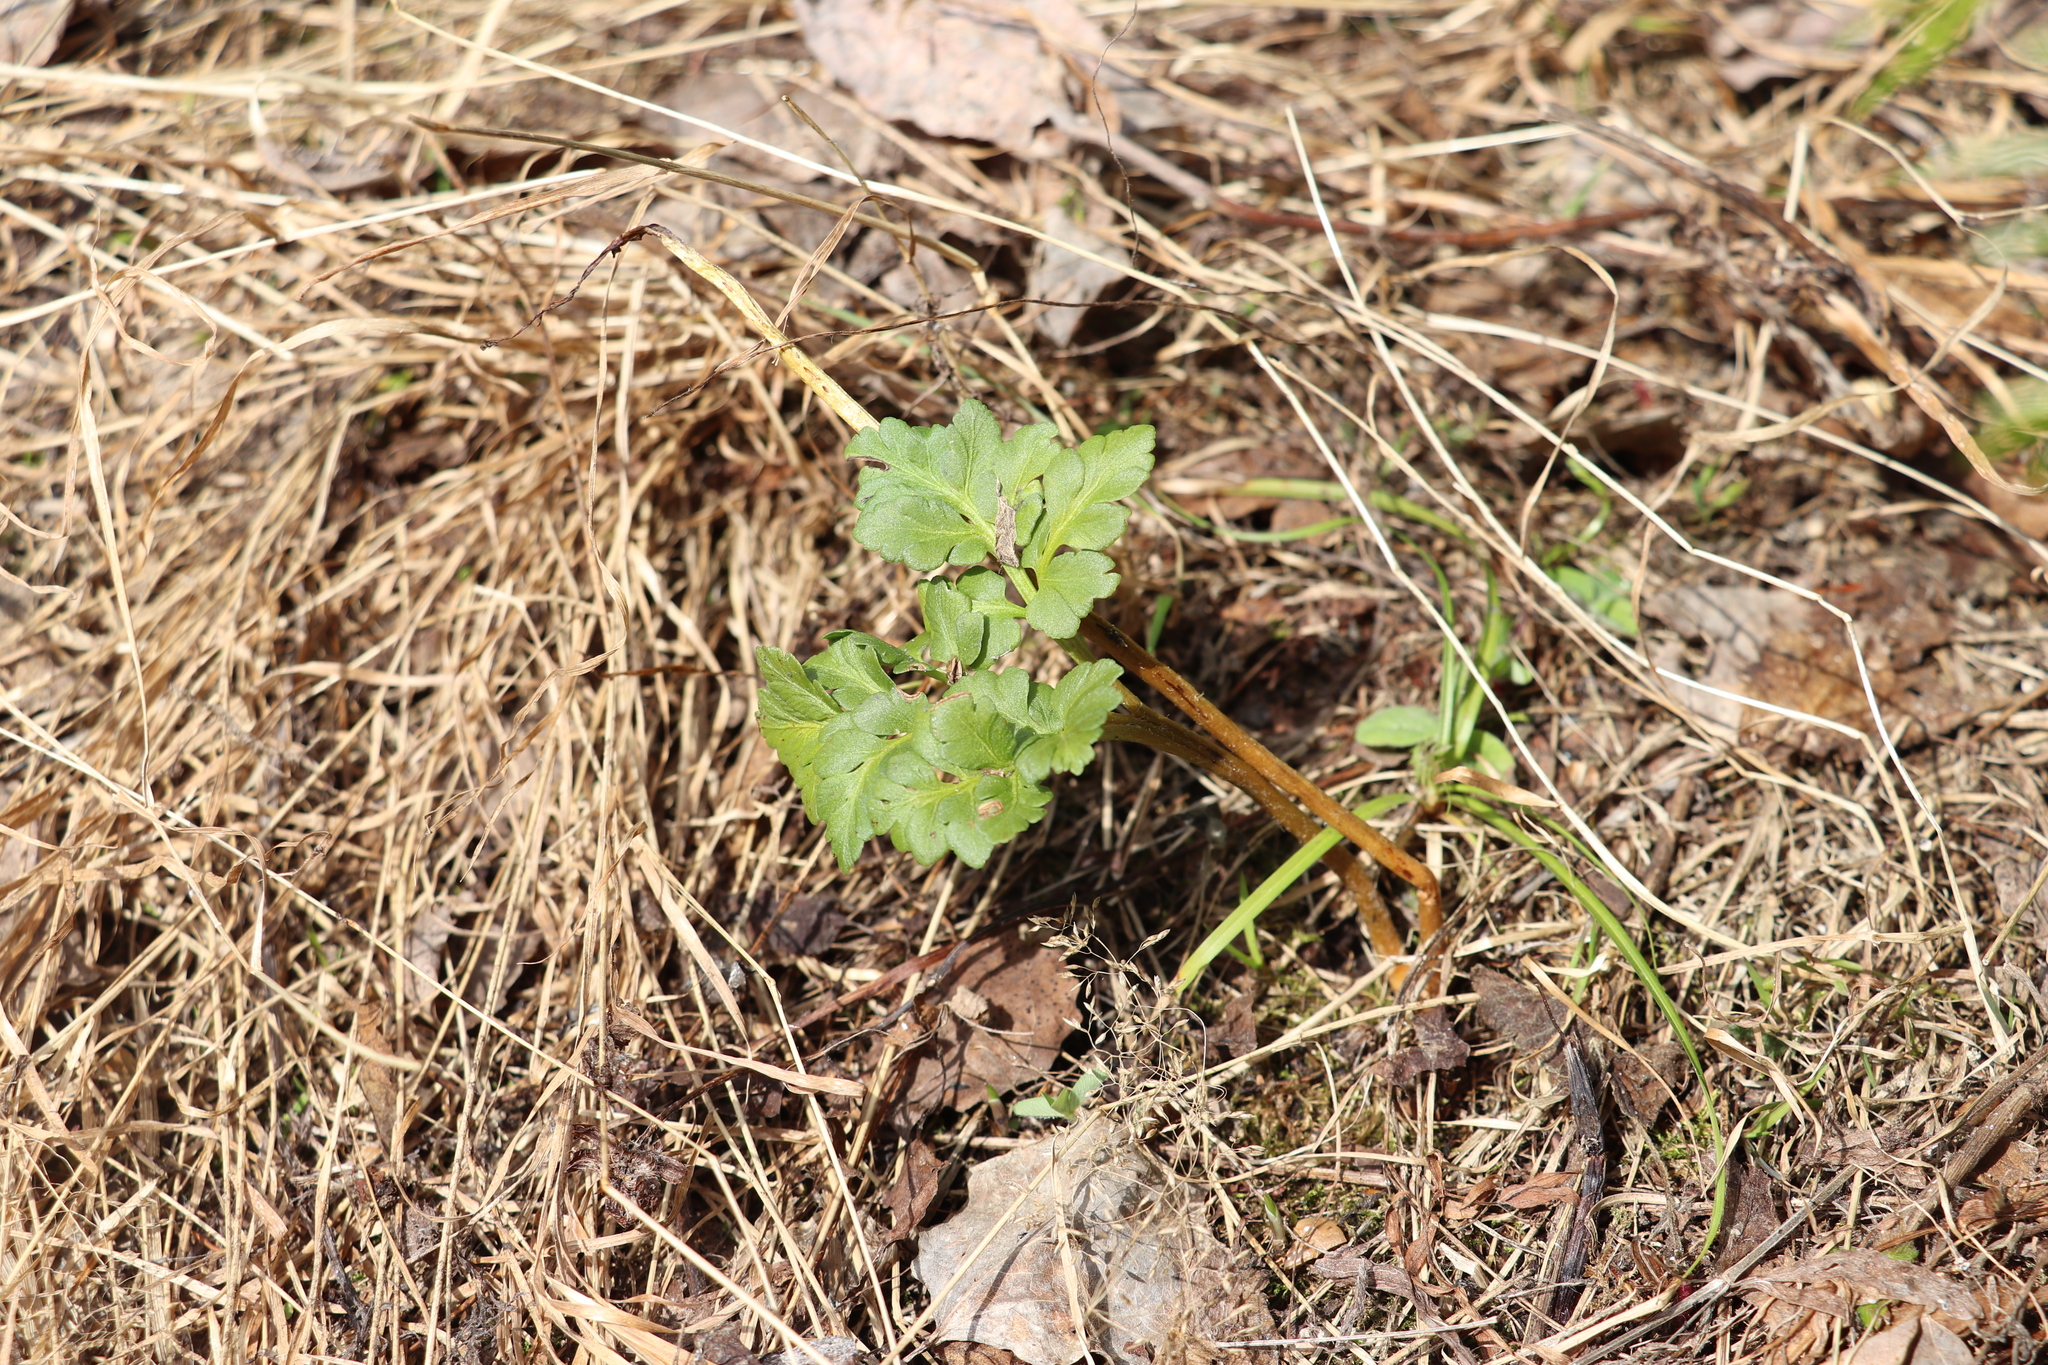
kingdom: Plantae
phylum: Tracheophyta
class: Polypodiopsida
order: Ophioglossales
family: Ophioglossaceae
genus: Sceptridium
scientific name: Sceptridium multifidum
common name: Leathery grape fern
